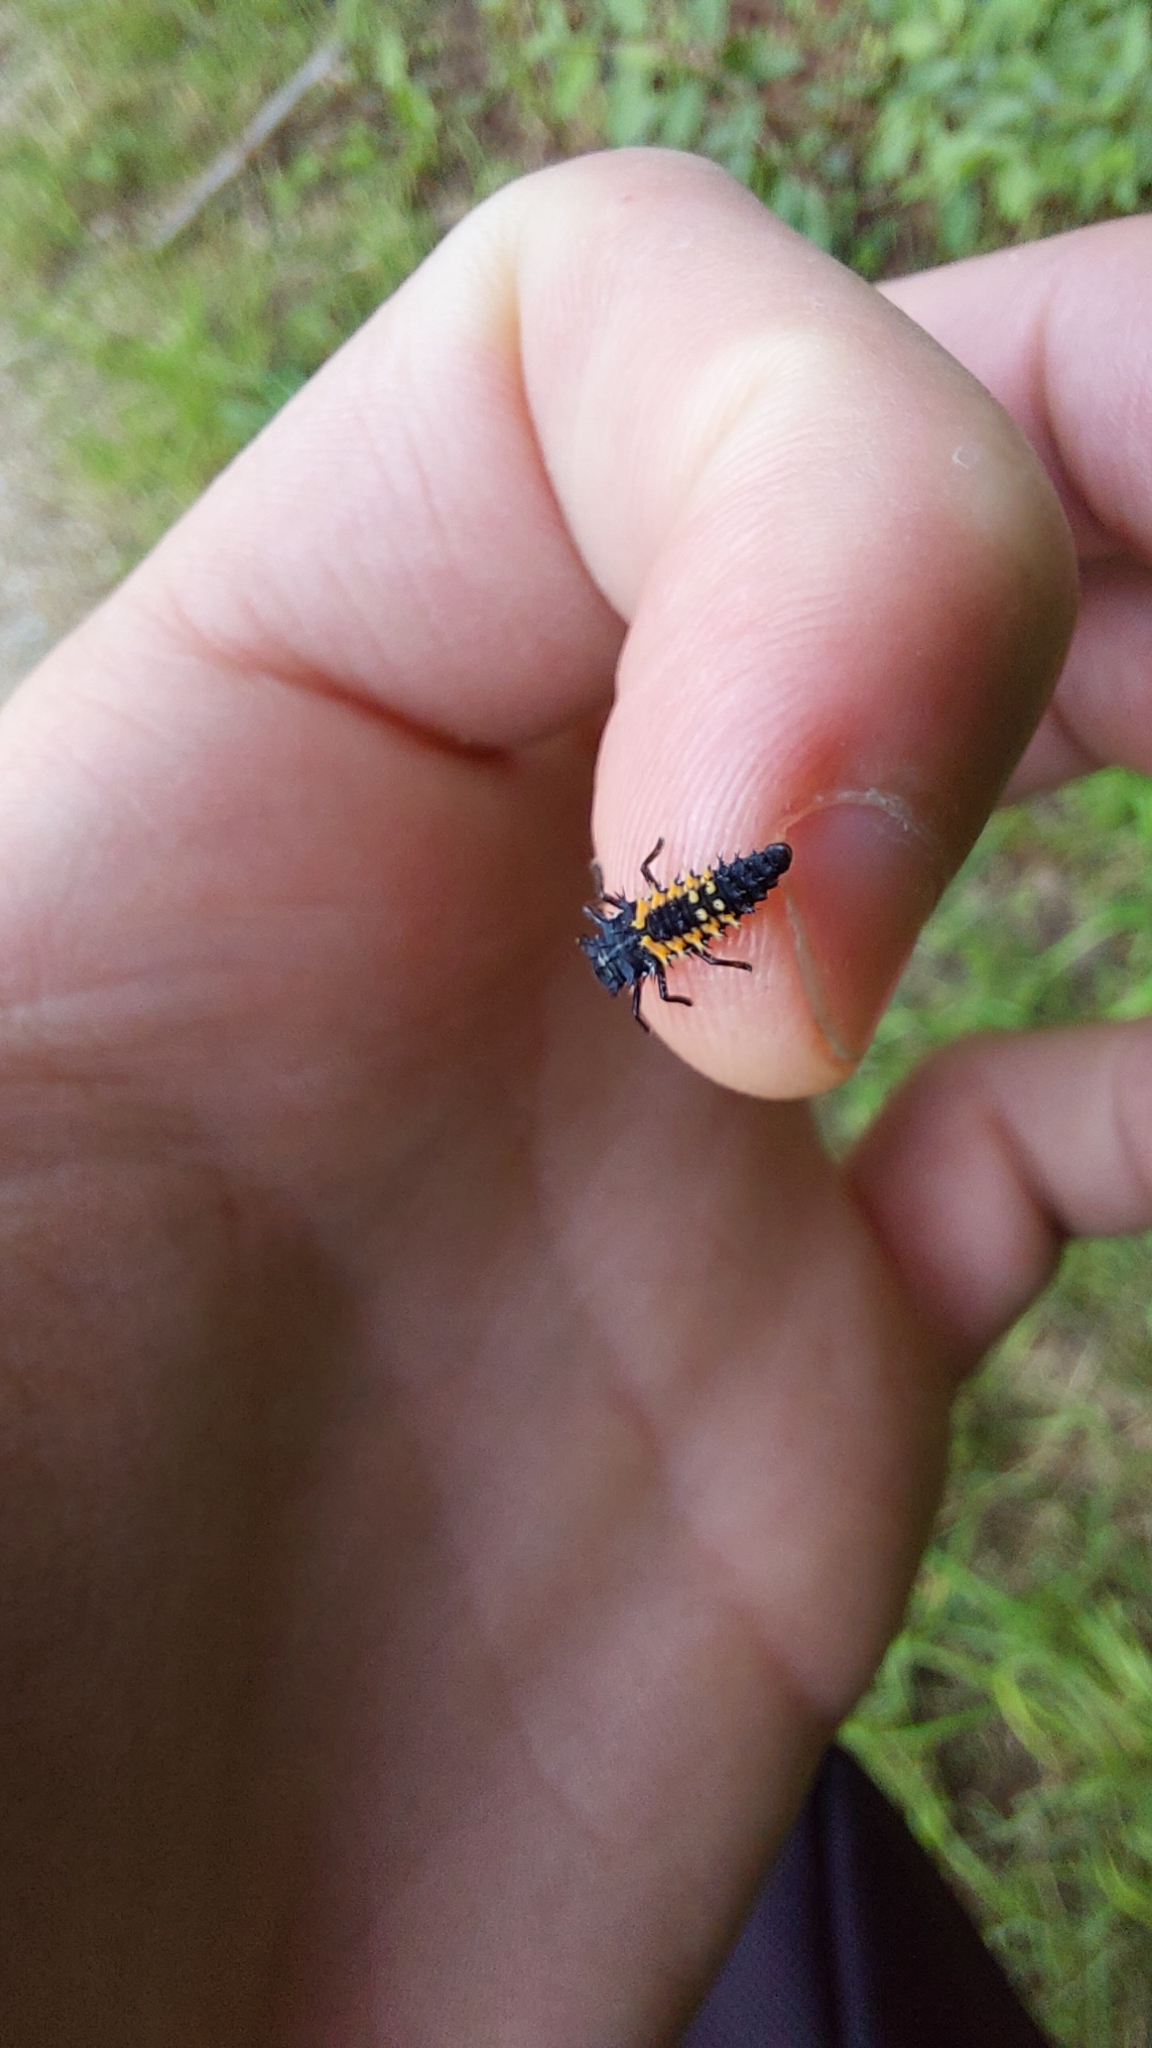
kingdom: Animalia
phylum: Arthropoda
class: Insecta
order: Coleoptera
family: Coccinellidae
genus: Harmonia
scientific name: Harmonia axyridis
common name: Harlequin ladybird
